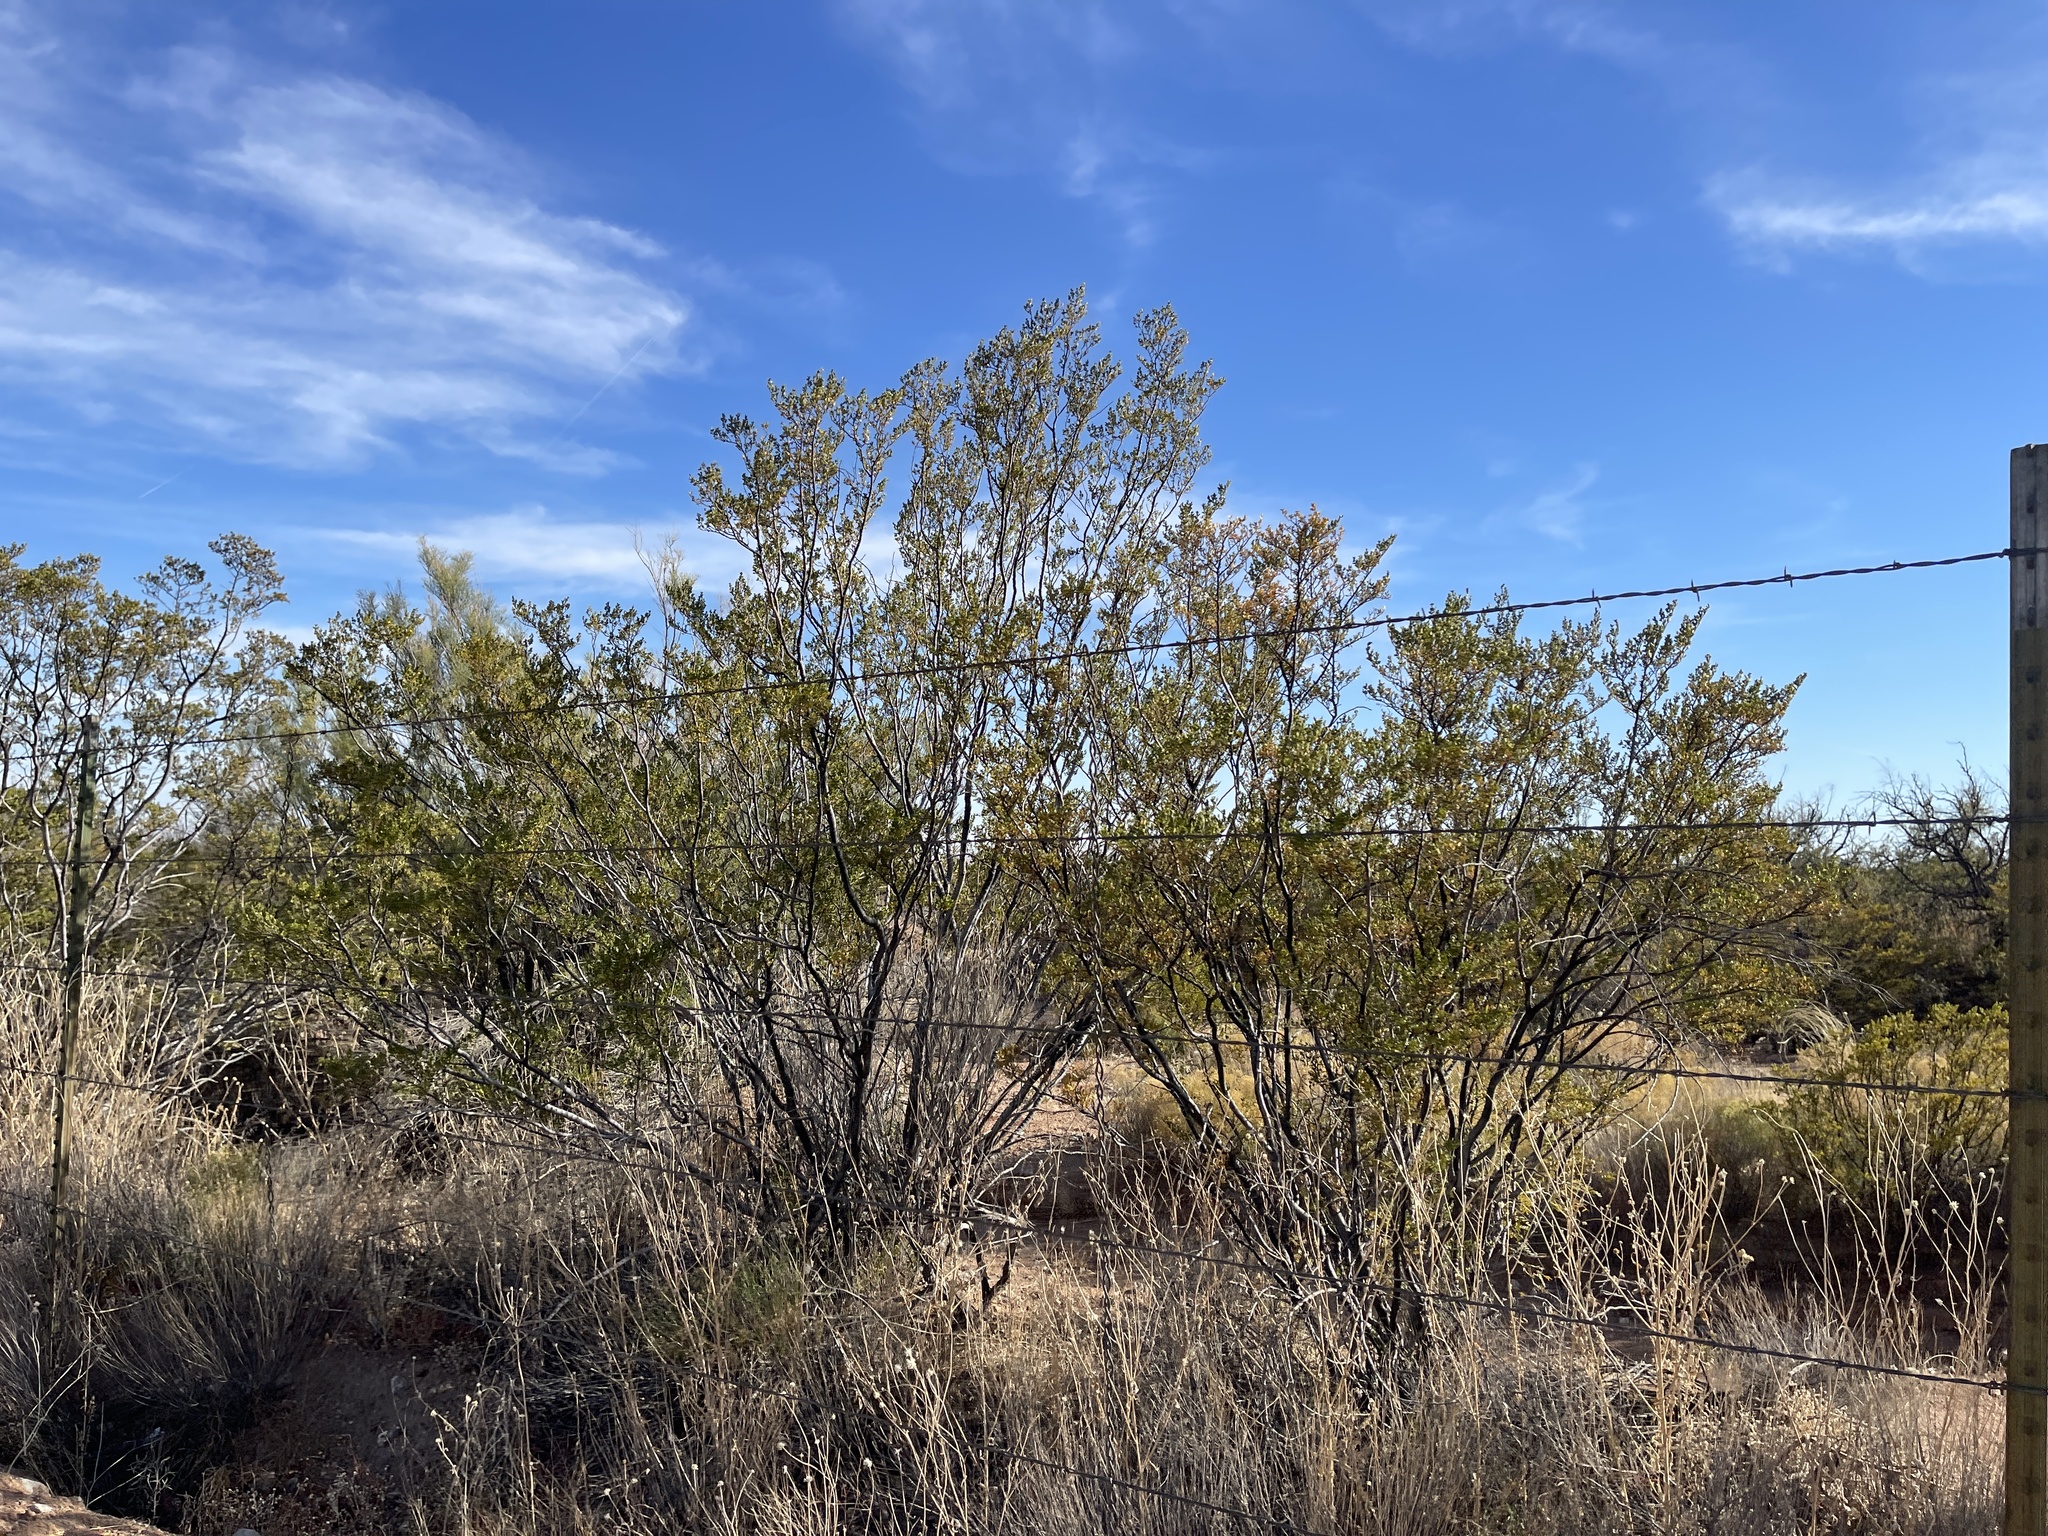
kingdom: Plantae
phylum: Tracheophyta
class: Magnoliopsida
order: Zygophyllales
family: Zygophyllaceae
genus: Larrea
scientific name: Larrea tridentata
